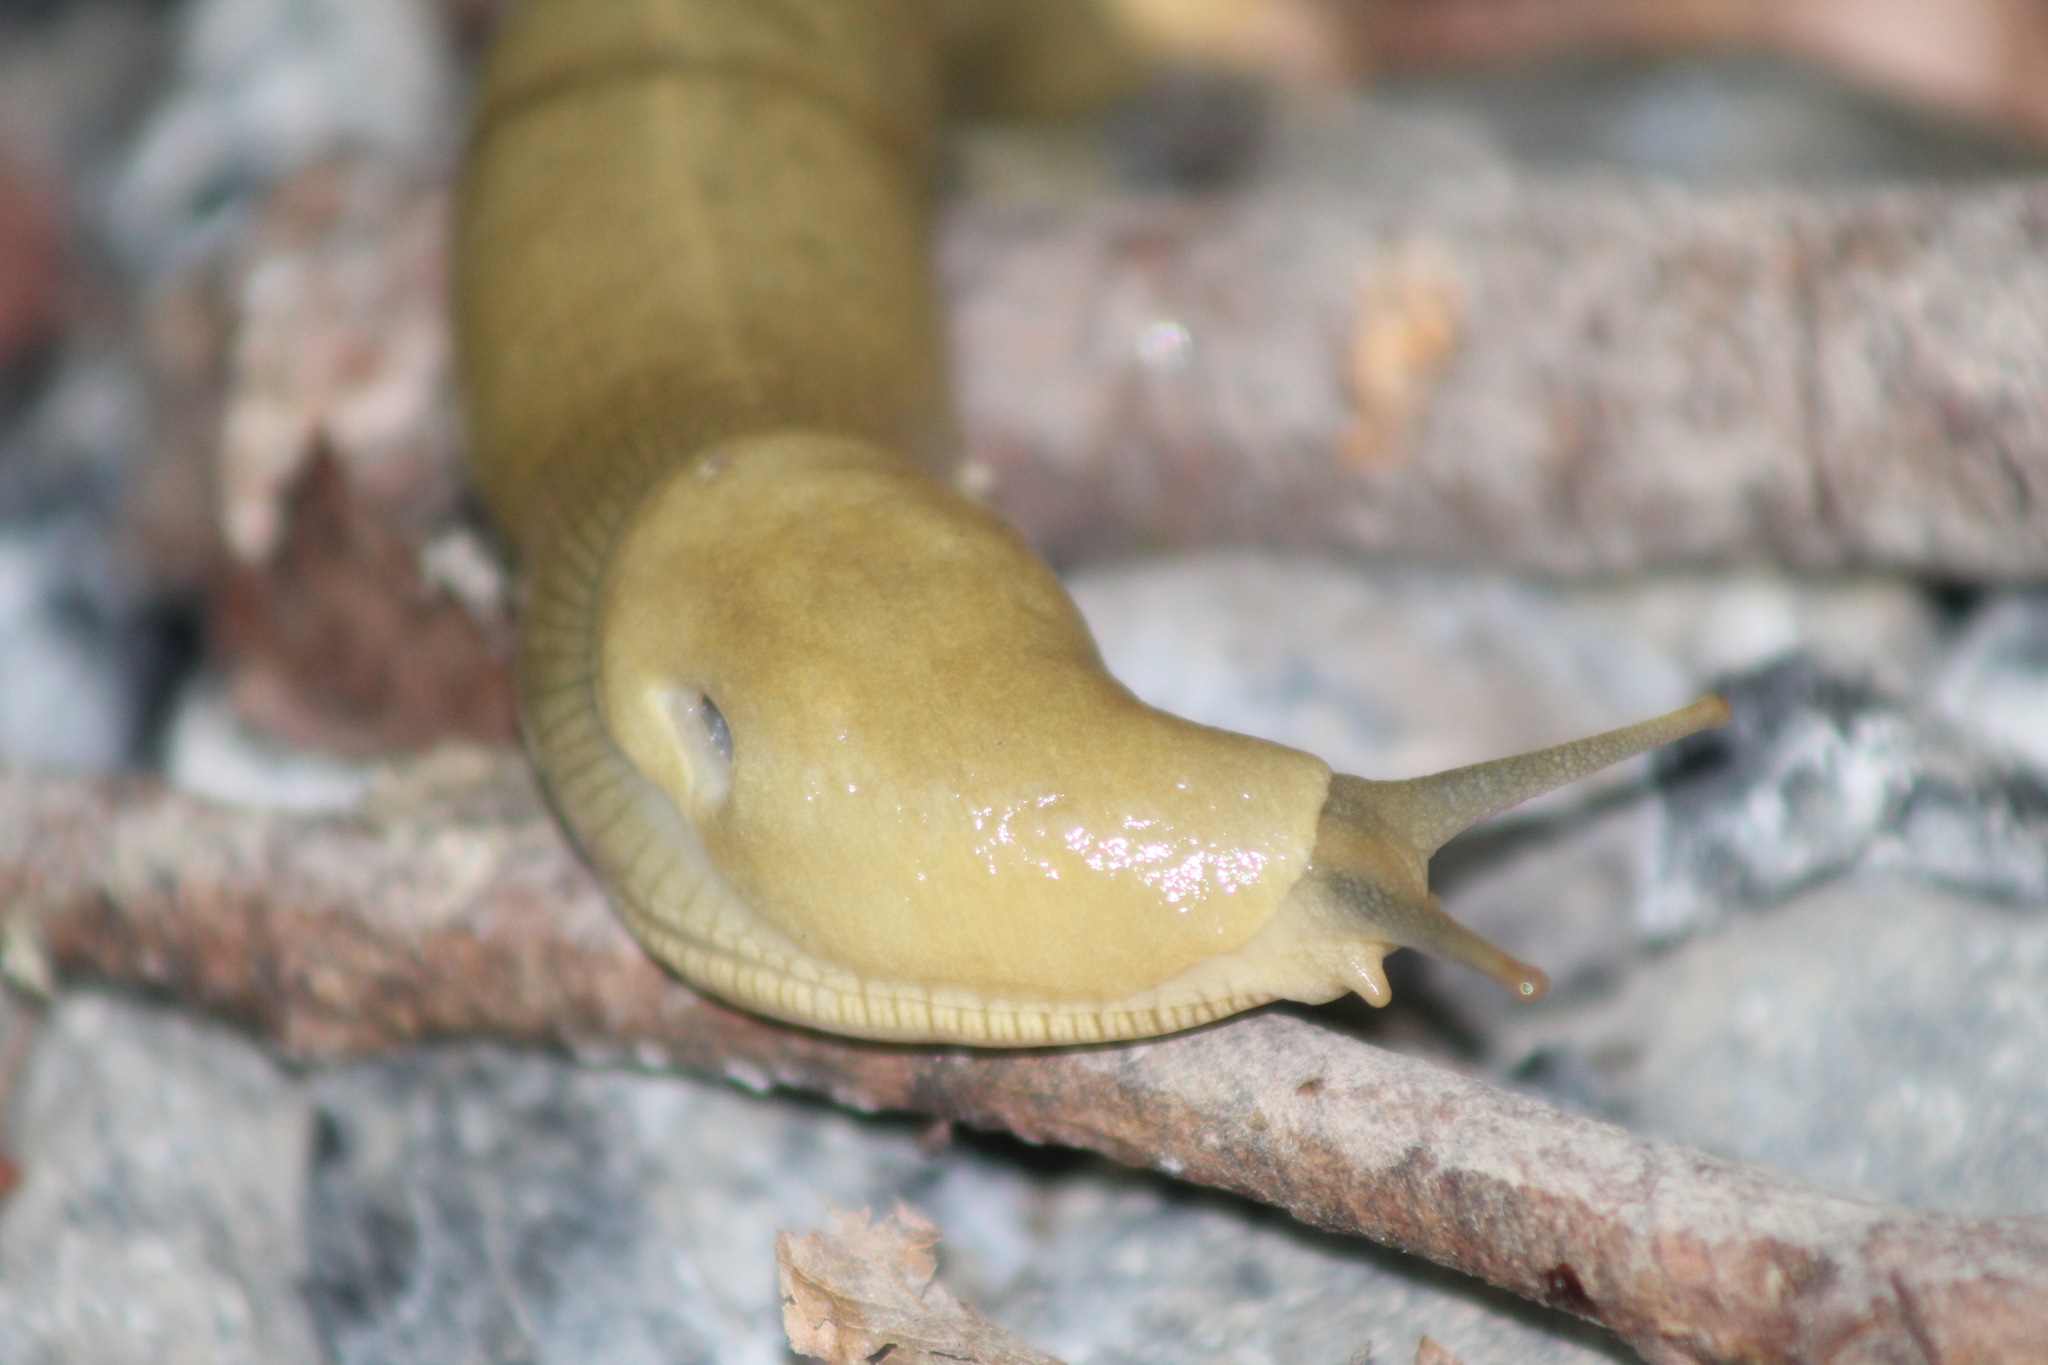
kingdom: Animalia
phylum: Mollusca
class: Gastropoda
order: Stylommatophora
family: Ariolimacidae
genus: Ariolimax
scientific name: Ariolimax columbianus
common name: Pacific banana slug
